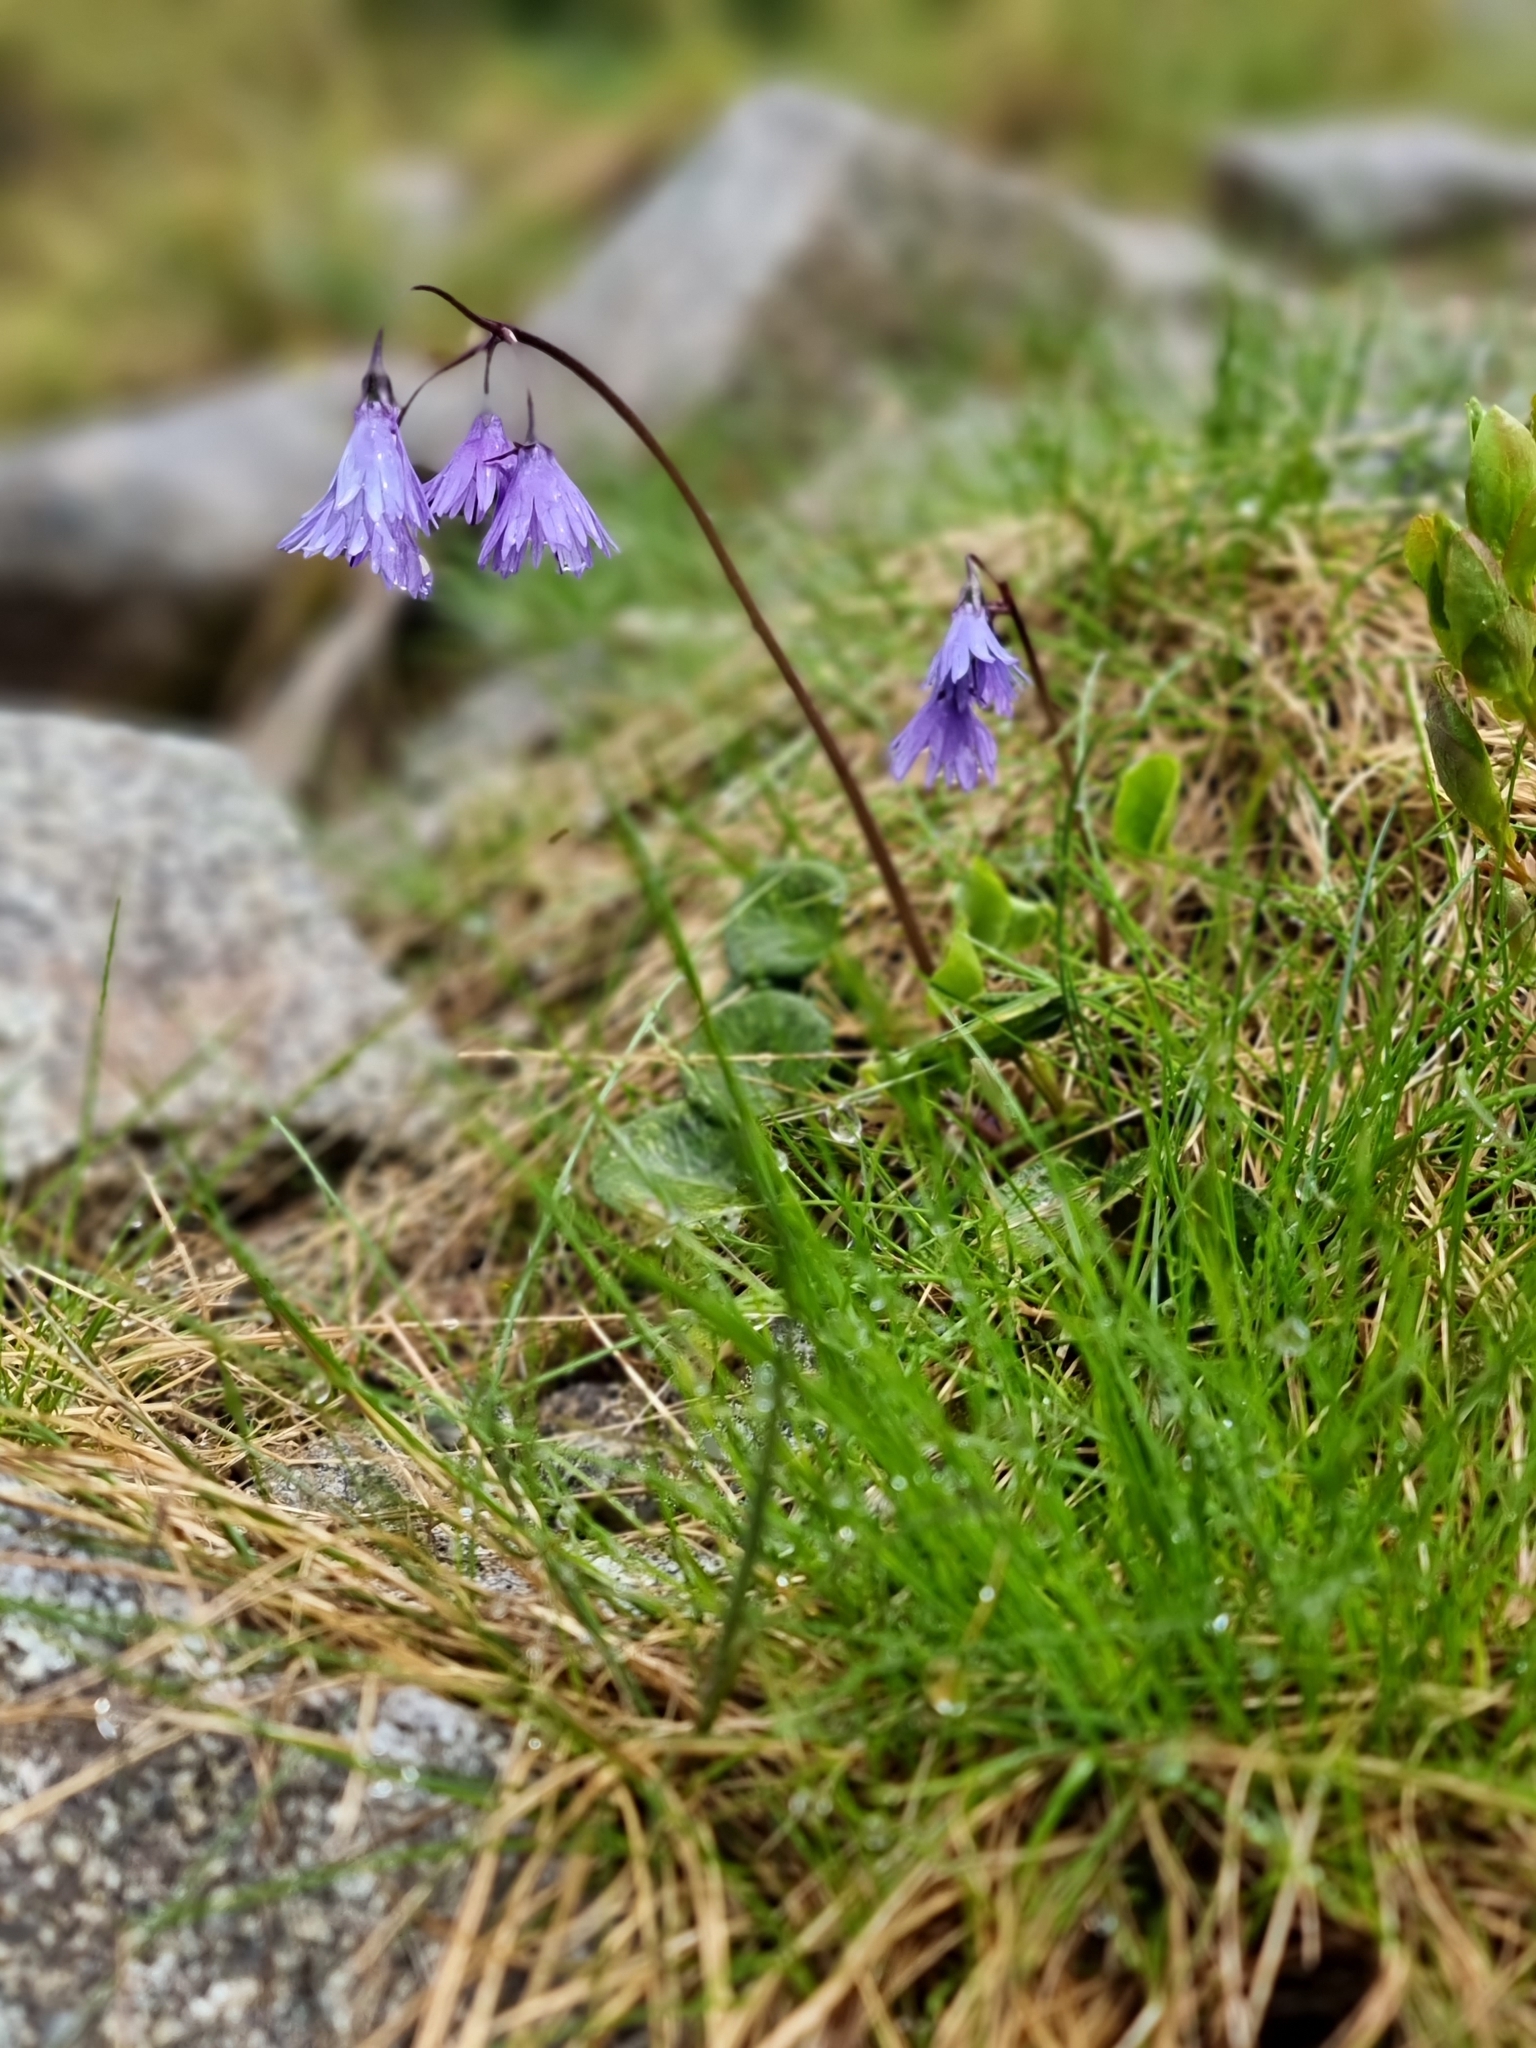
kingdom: Plantae
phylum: Tracheophyta
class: Magnoliopsida
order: Ericales
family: Primulaceae
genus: Soldanella
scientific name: Soldanella carpatica
